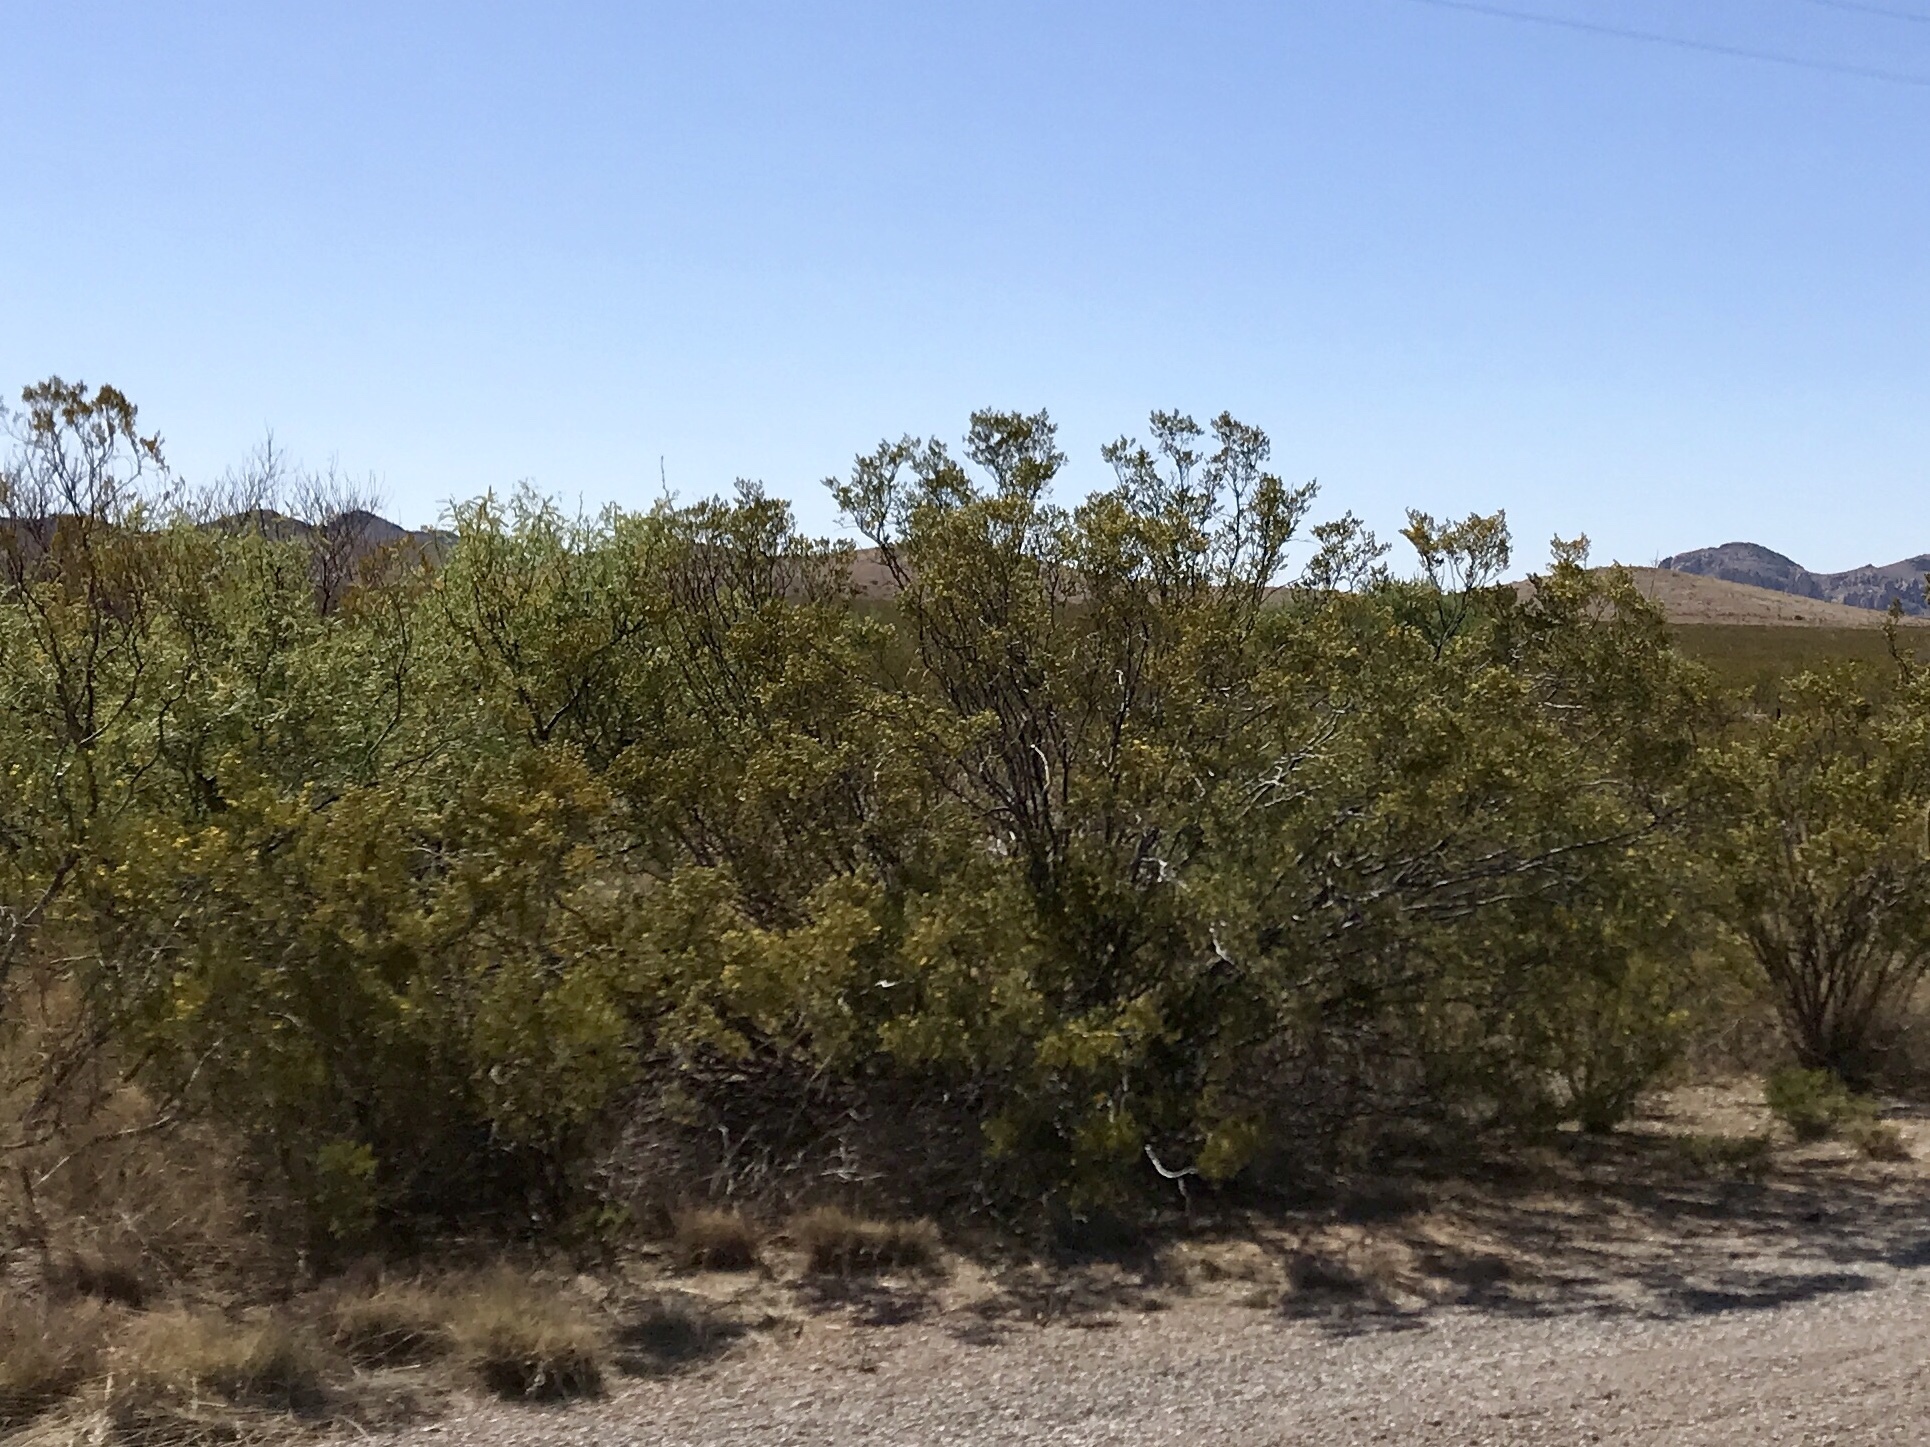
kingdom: Plantae
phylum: Tracheophyta
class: Magnoliopsida
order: Zygophyllales
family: Zygophyllaceae
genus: Larrea
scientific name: Larrea tridentata
